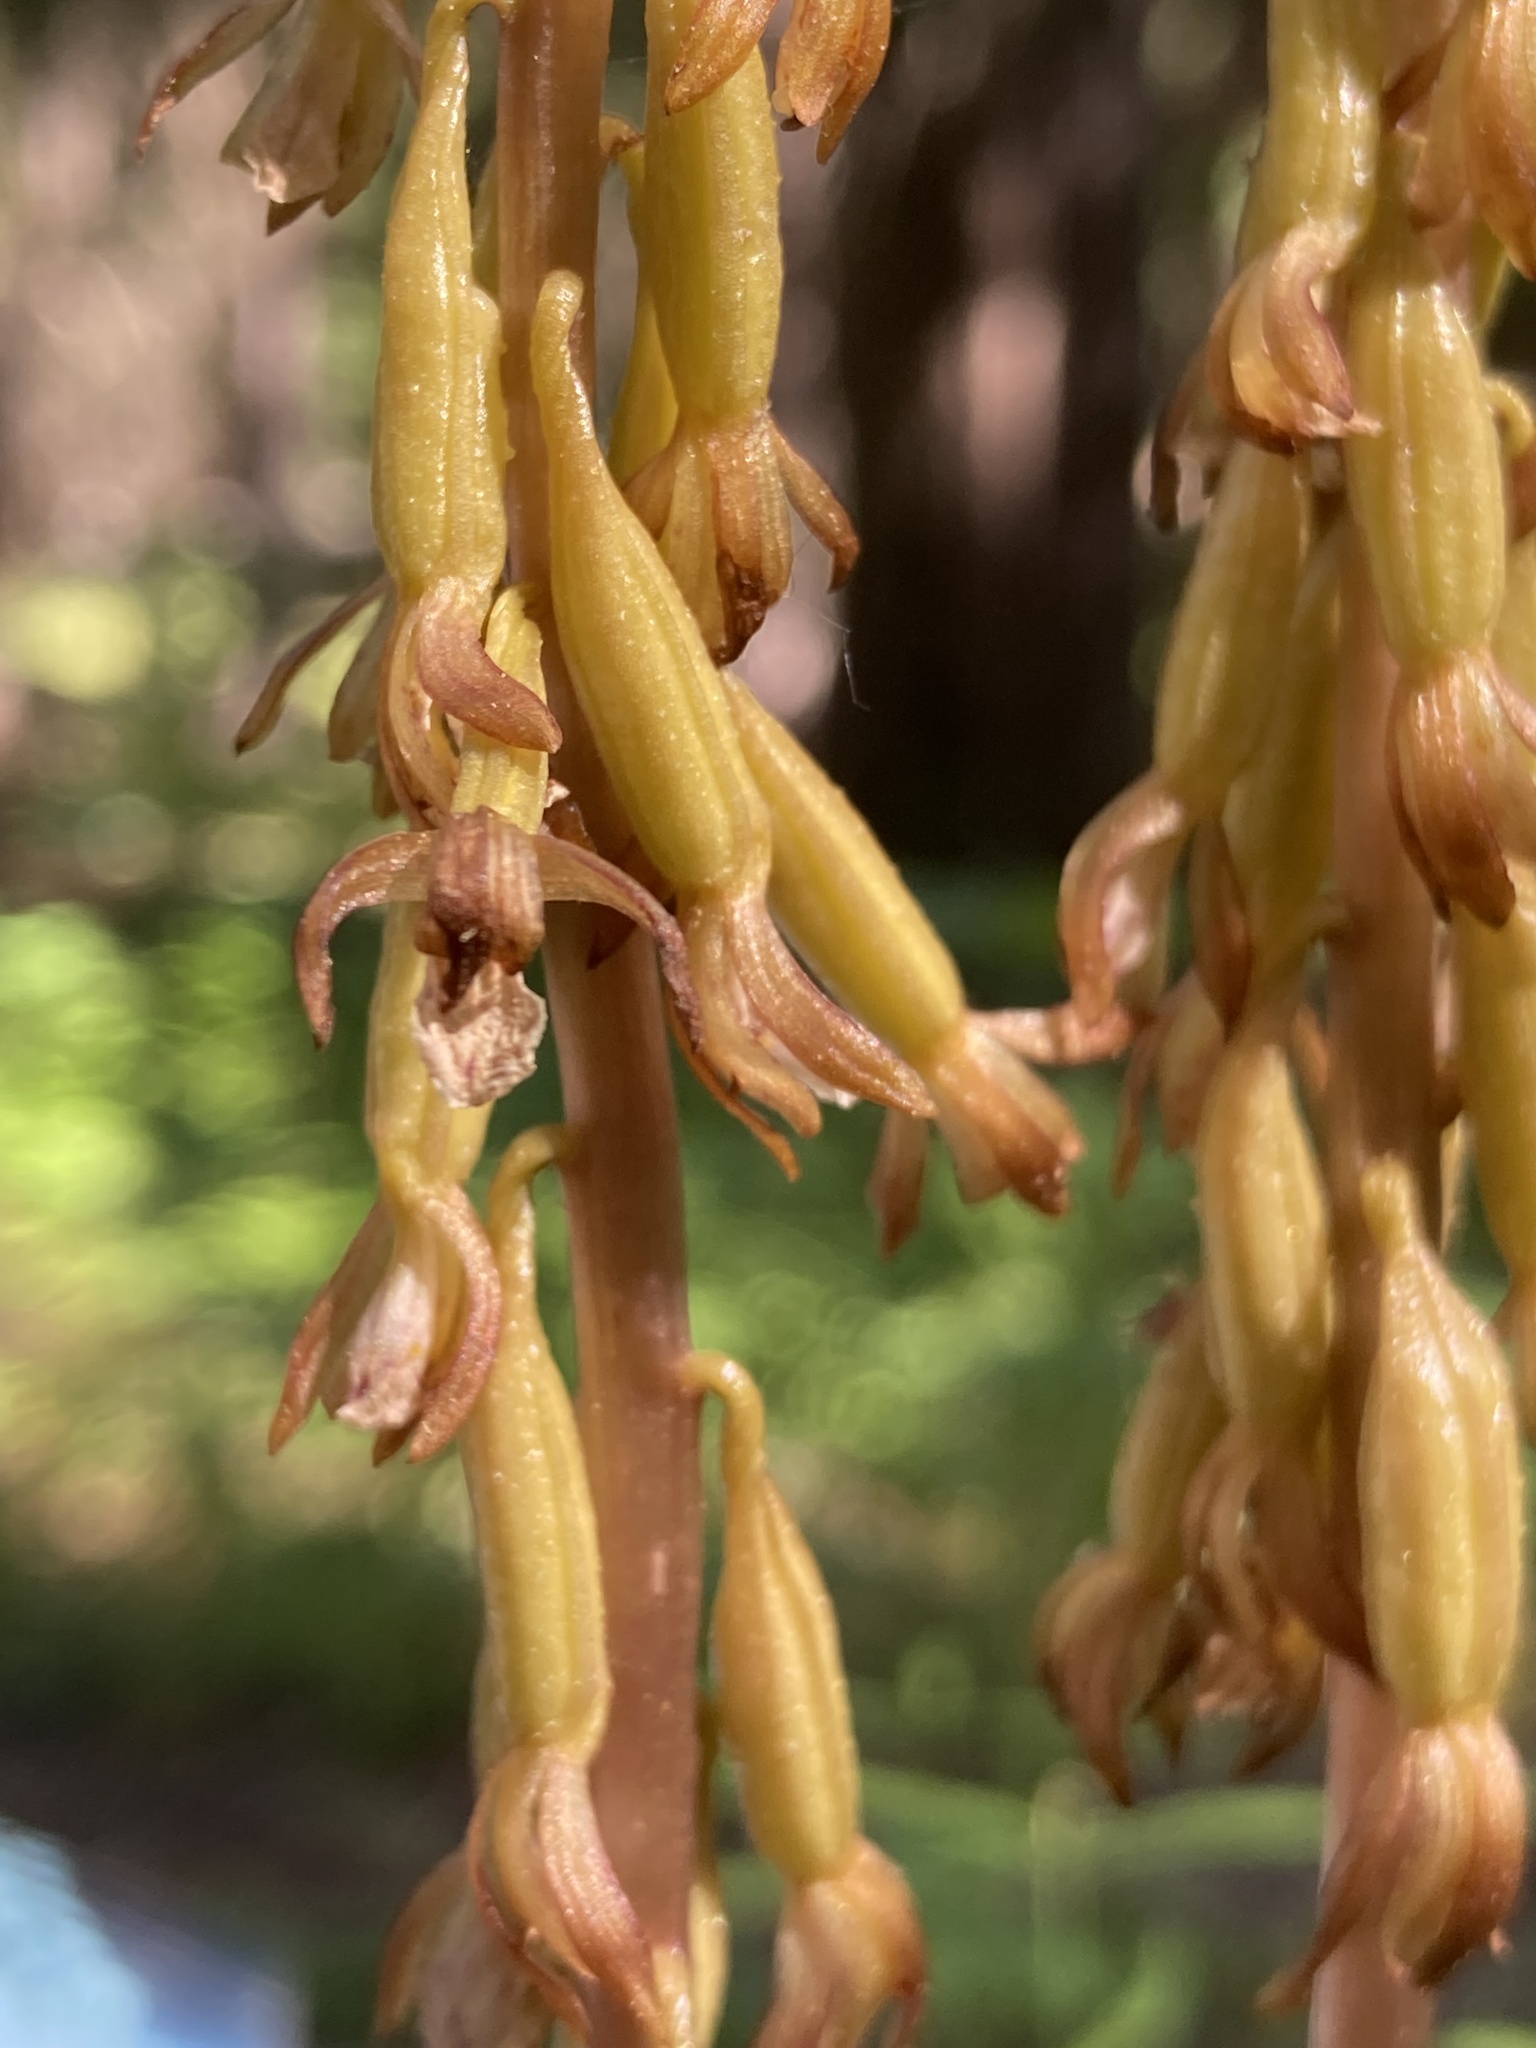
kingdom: Plantae
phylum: Tracheophyta
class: Liliopsida
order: Asparagales
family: Orchidaceae
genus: Corallorhiza
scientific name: Corallorhiza maculata
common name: Spotted coralroot
